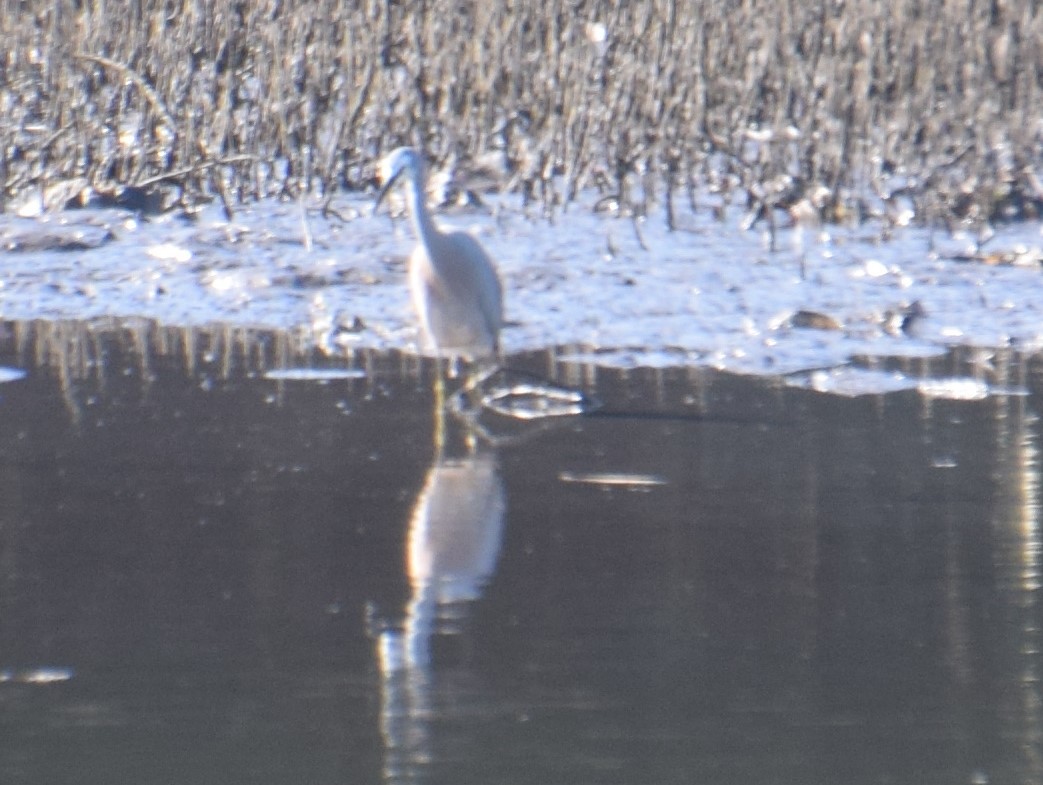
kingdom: Animalia
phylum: Chordata
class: Aves
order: Pelecaniformes
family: Ardeidae
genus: Egretta
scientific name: Egretta novaehollandiae
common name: White-faced heron
